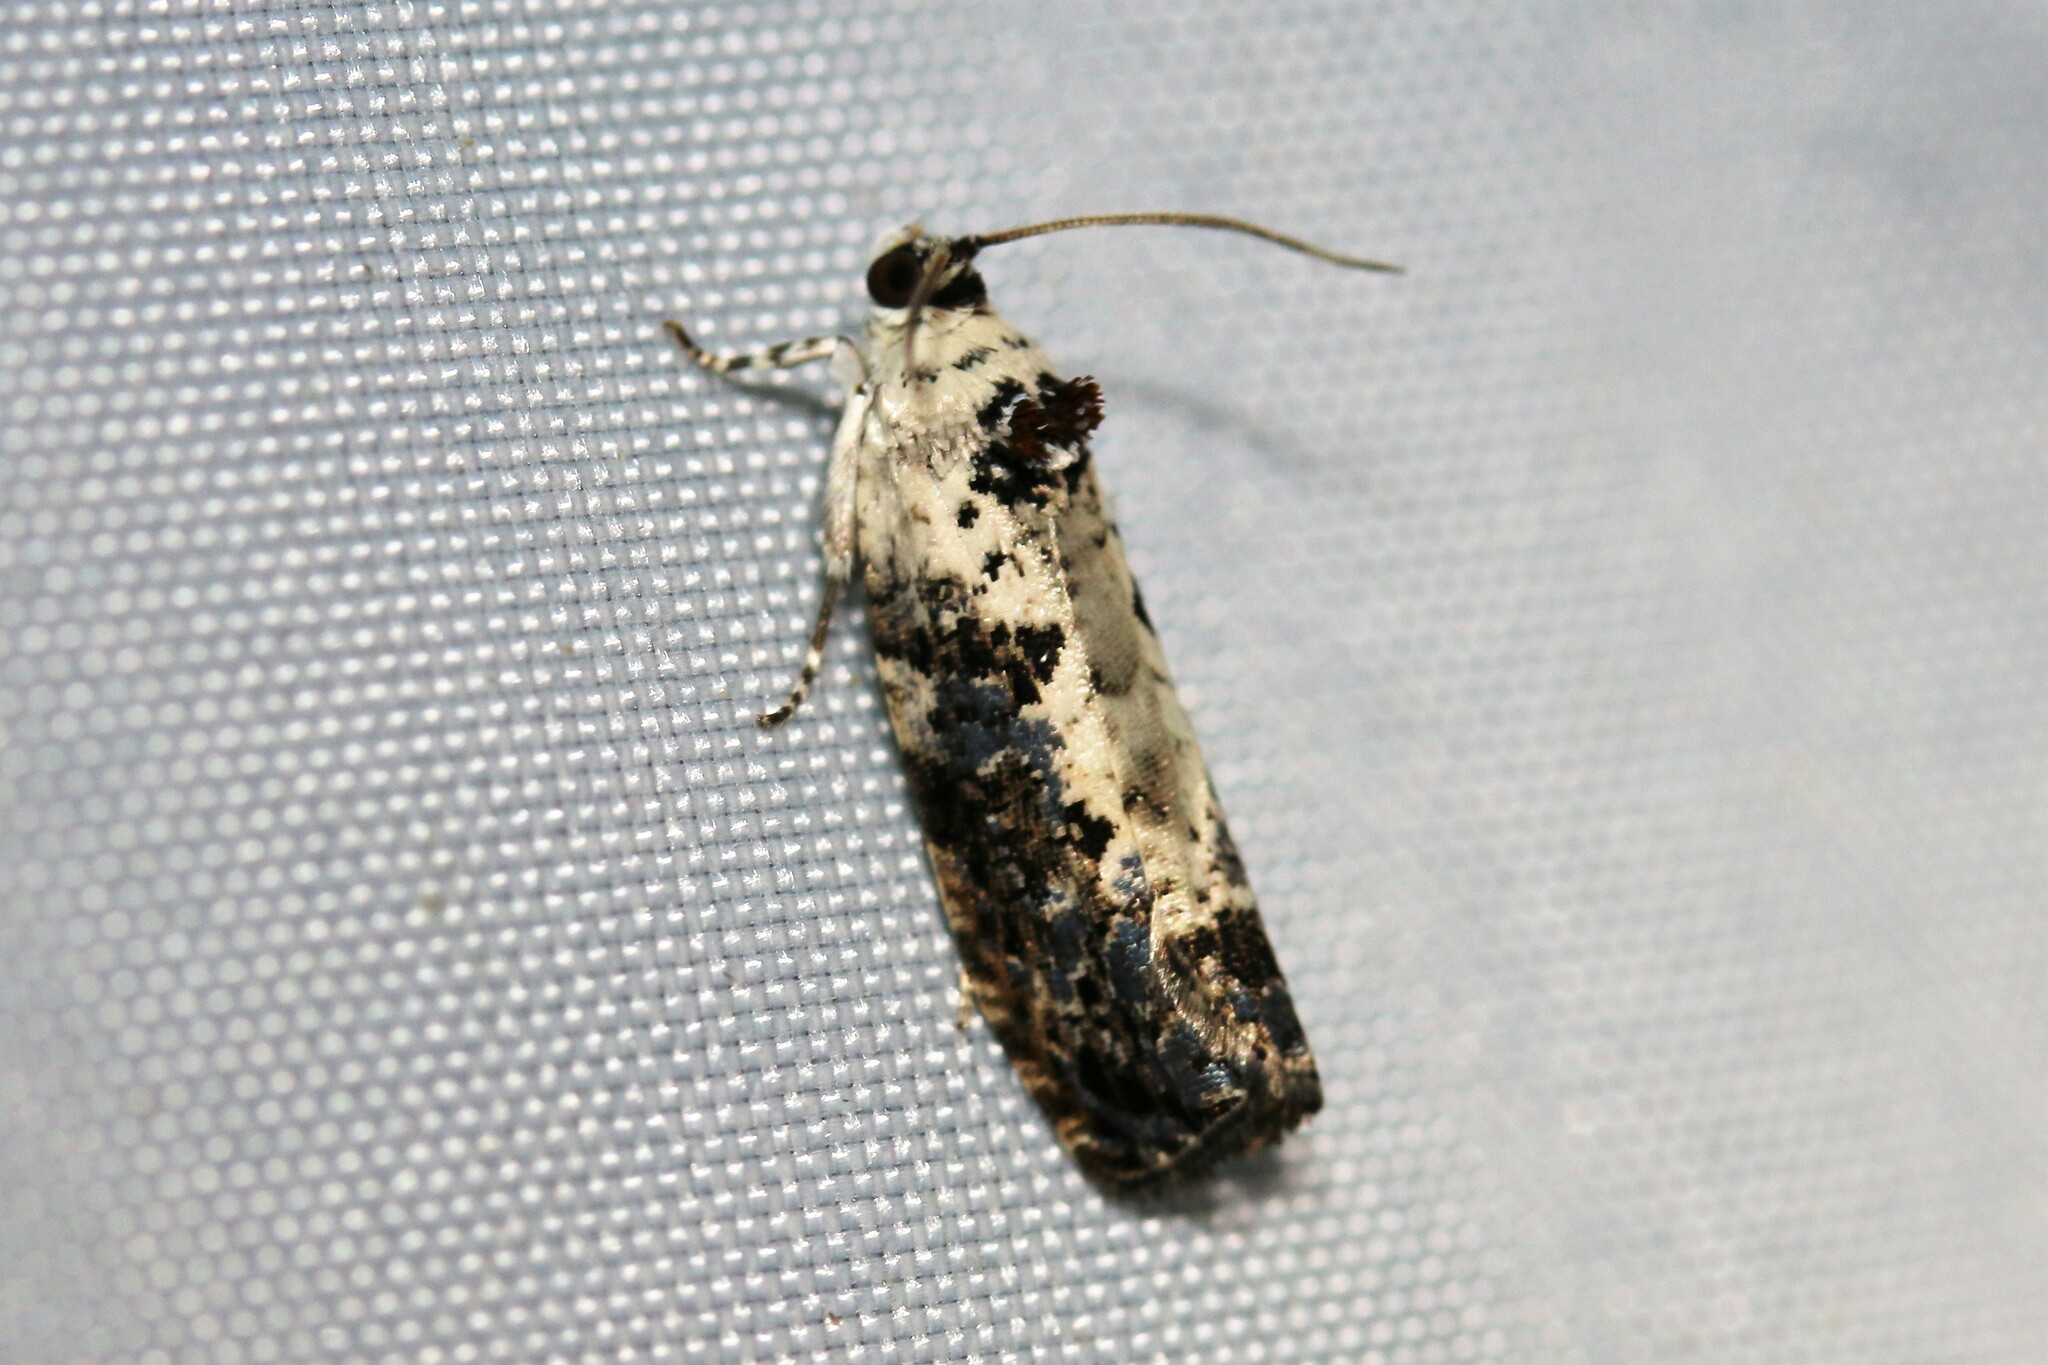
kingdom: Animalia
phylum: Arthropoda
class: Insecta
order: Lepidoptera
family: Tortricidae
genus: Hedya
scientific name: Hedya salicella
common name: Large tortricid moth
